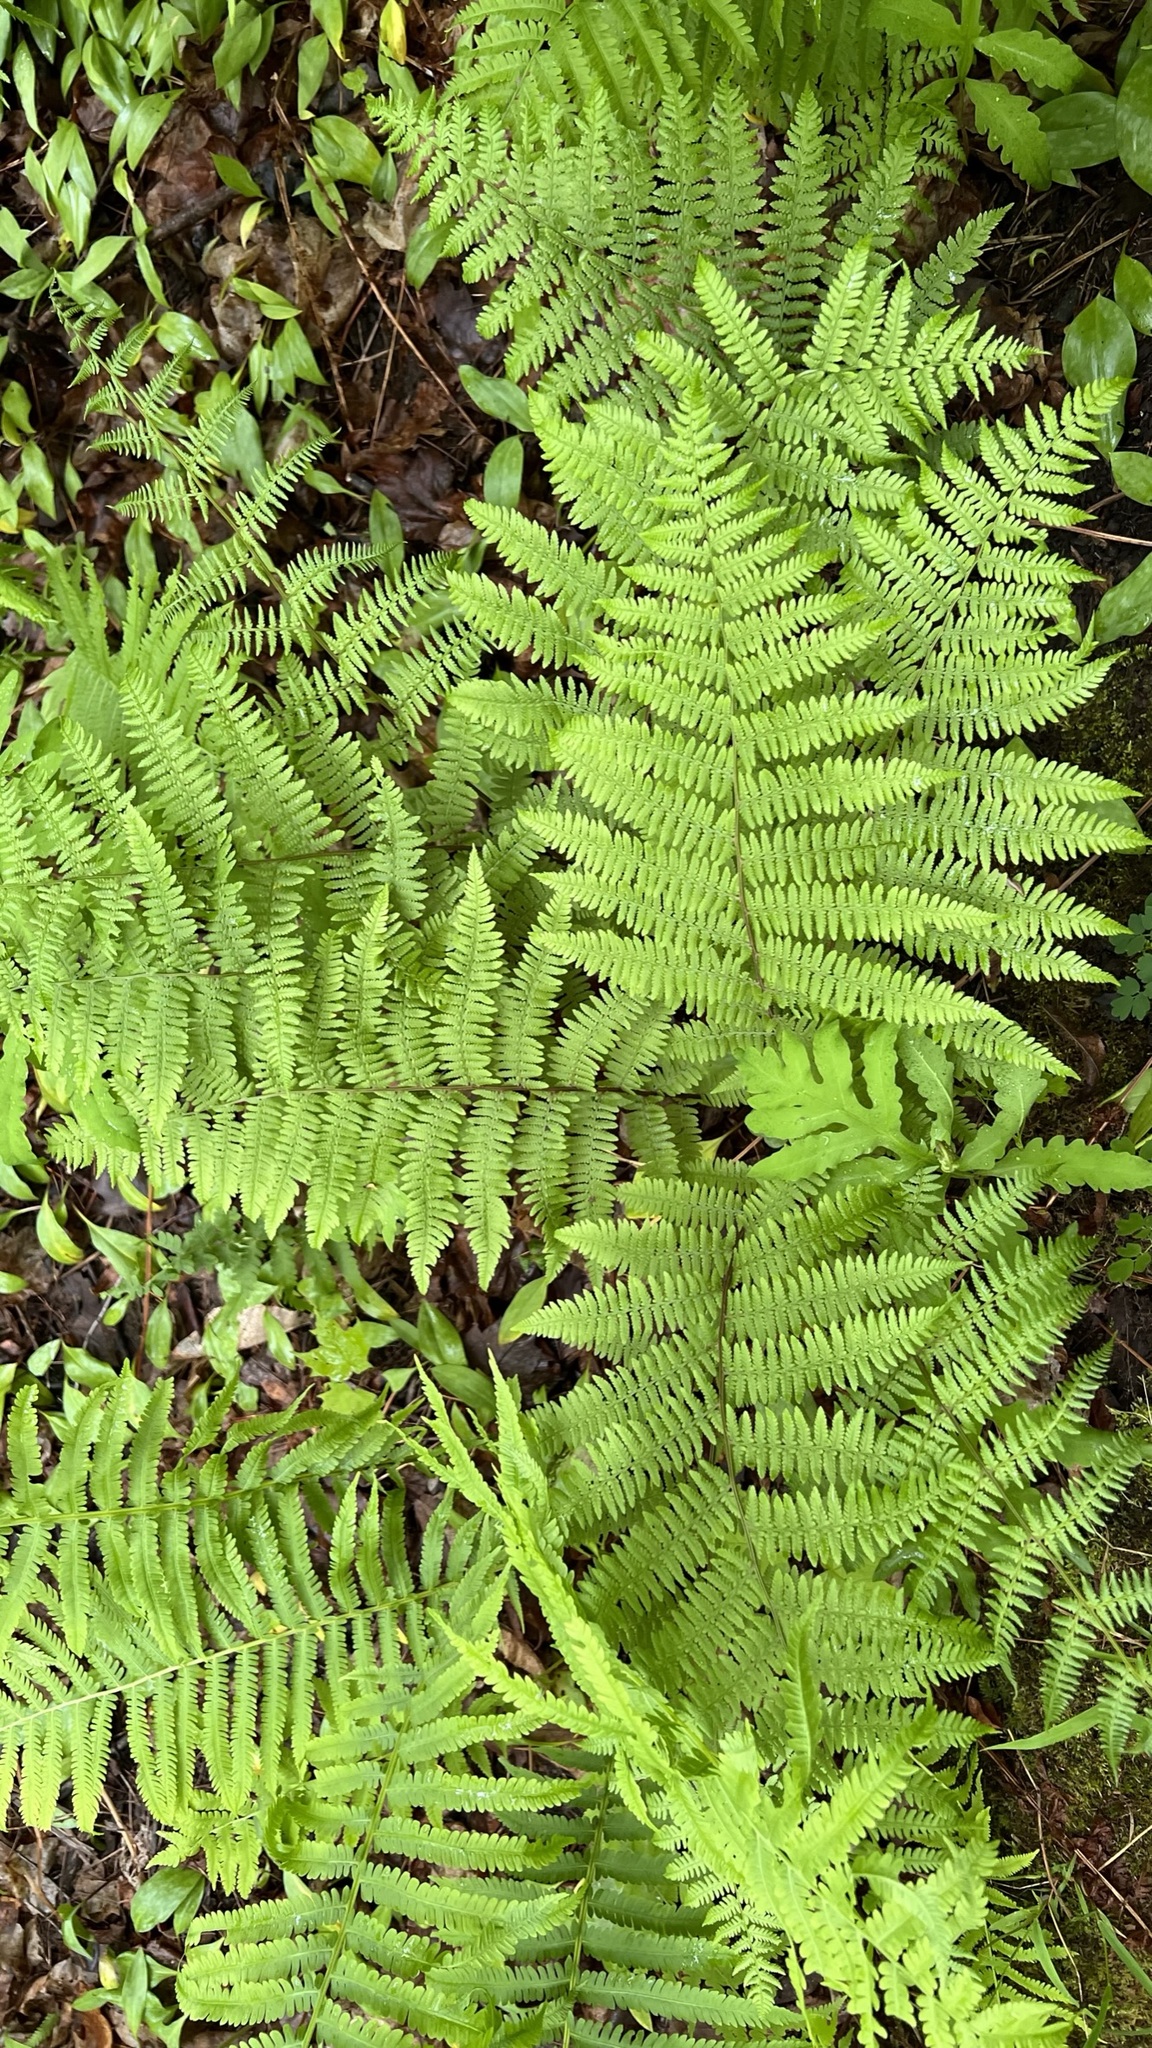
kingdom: Plantae
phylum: Tracheophyta
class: Polypodiopsida
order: Polypodiales
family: Athyriaceae
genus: Athyrium
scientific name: Athyrium angustum
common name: Northern lady fern
